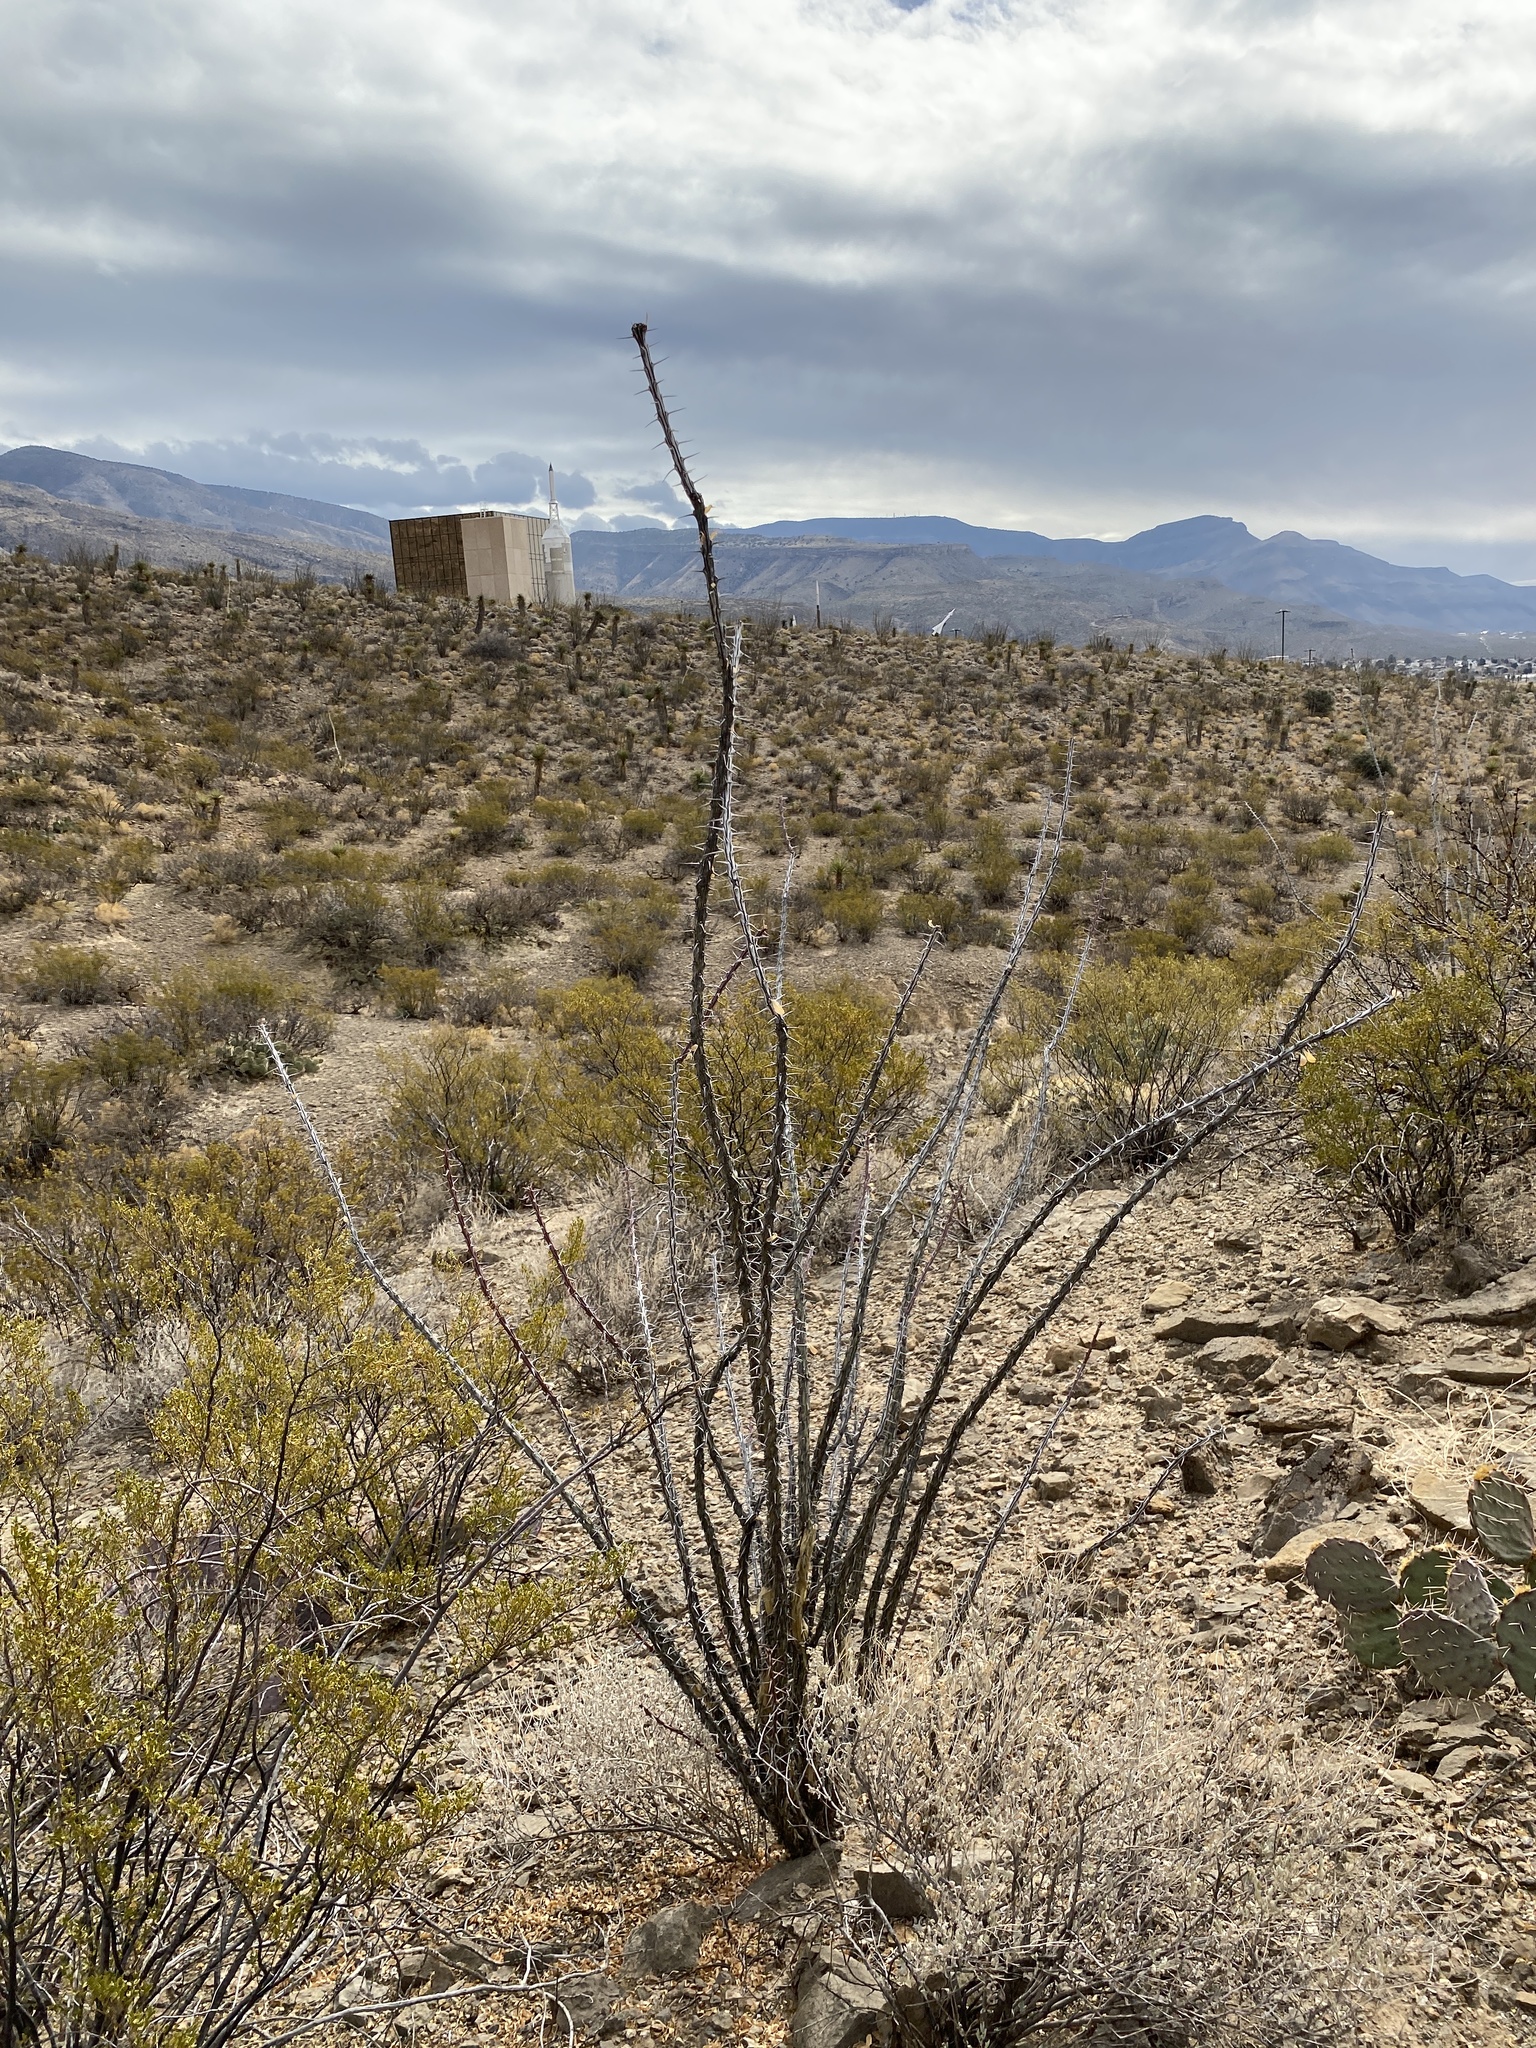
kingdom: Plantae
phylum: Tracheophyta
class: Magnoliopsida
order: Ericales
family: Fouquieriaceae
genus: Fouquieria
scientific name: Fouquieria splendens
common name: Vine-cactus
